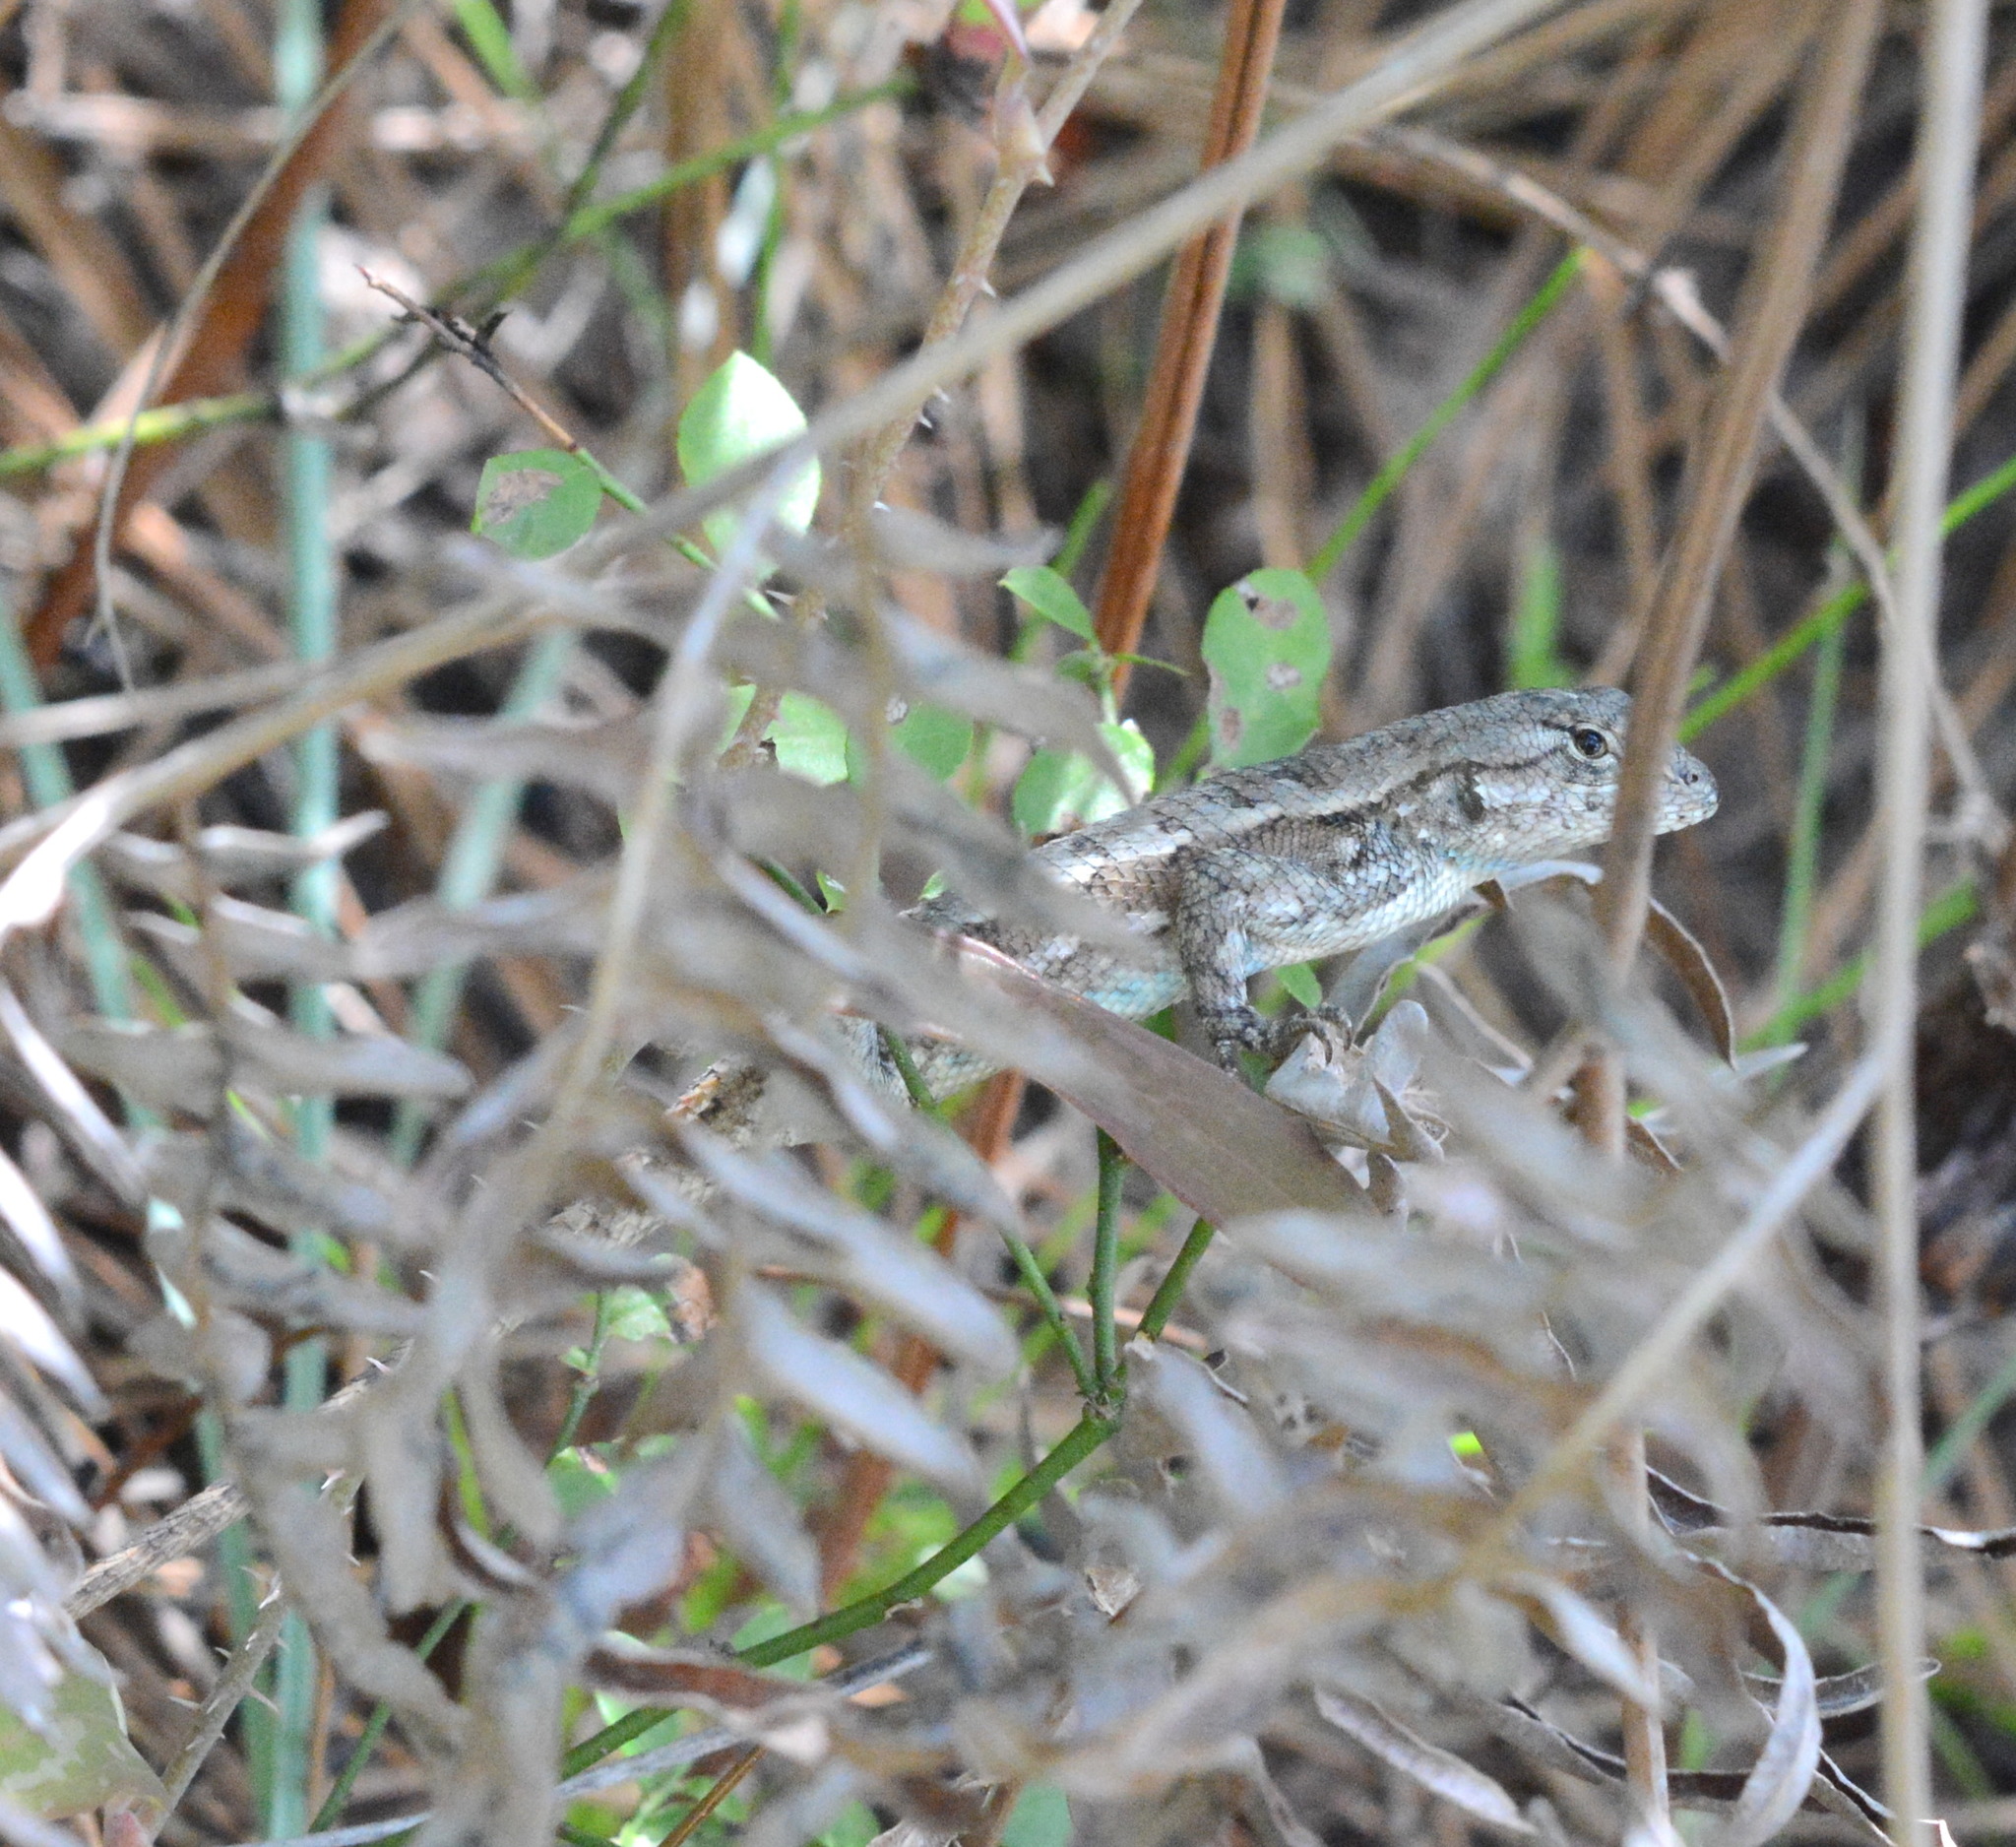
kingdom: Animalia
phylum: Chordata
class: Squamata
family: Phrynosomatidae
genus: Sceloporus
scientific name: Sceloporus consobrinus
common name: Southern prairie lizard
